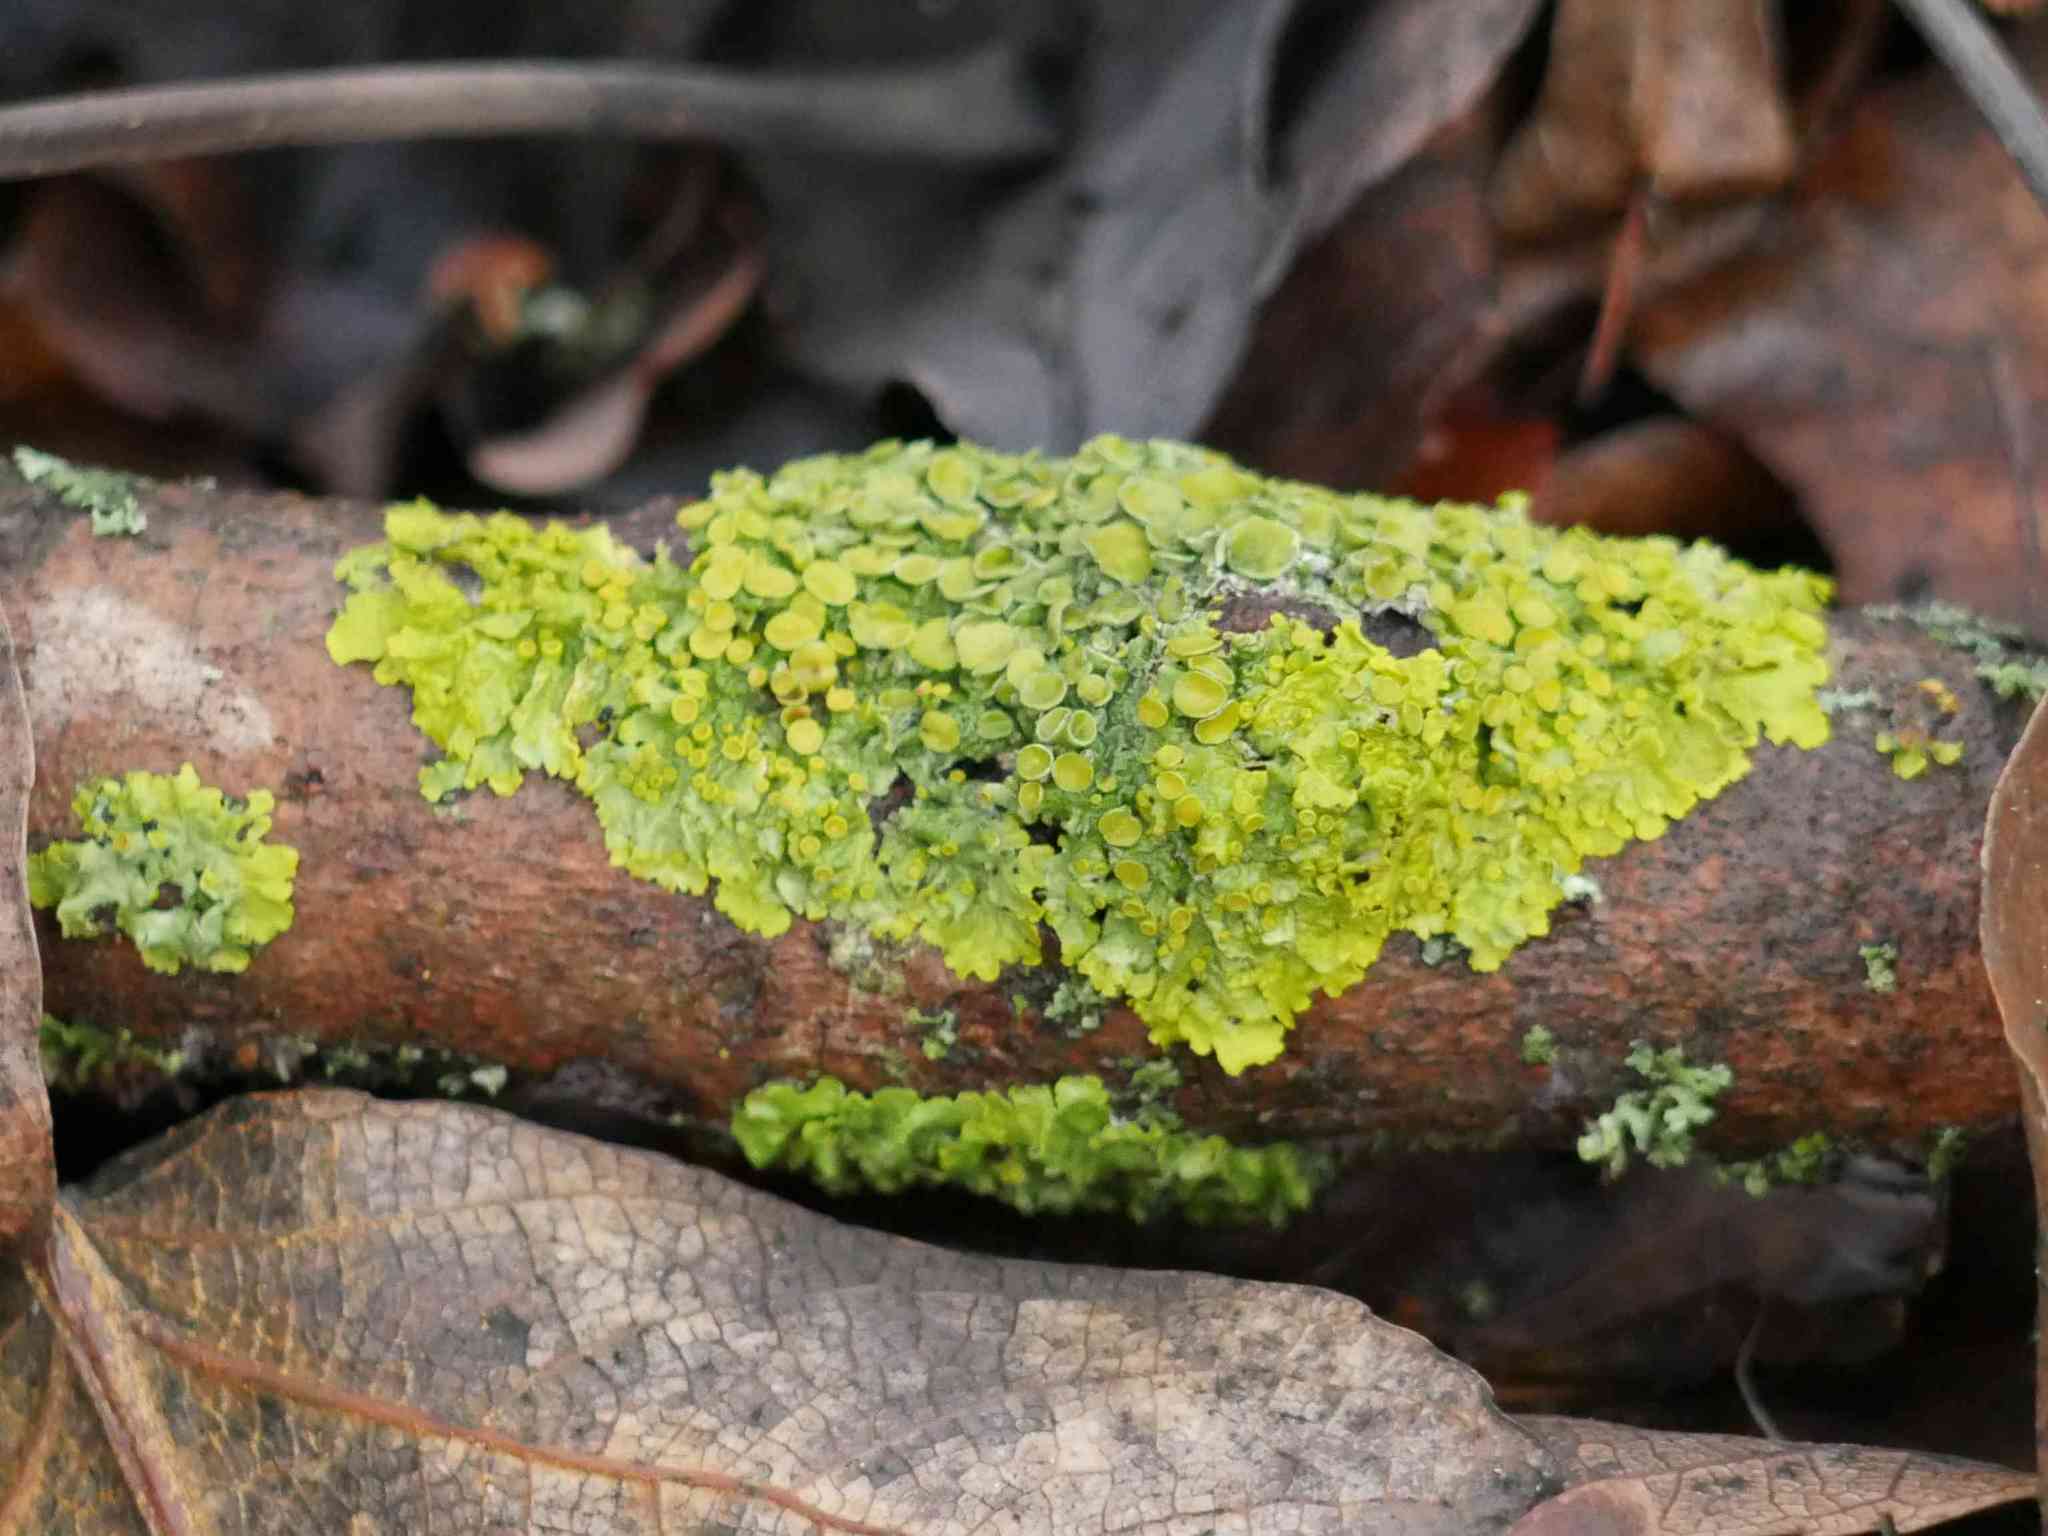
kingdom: Fungi
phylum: Ascomycota
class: Lecanoromycetes
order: Teloschistales
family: Teloschistaceae
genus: Xanthoria
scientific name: Xanthoria parietina
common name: Common orange lichen
